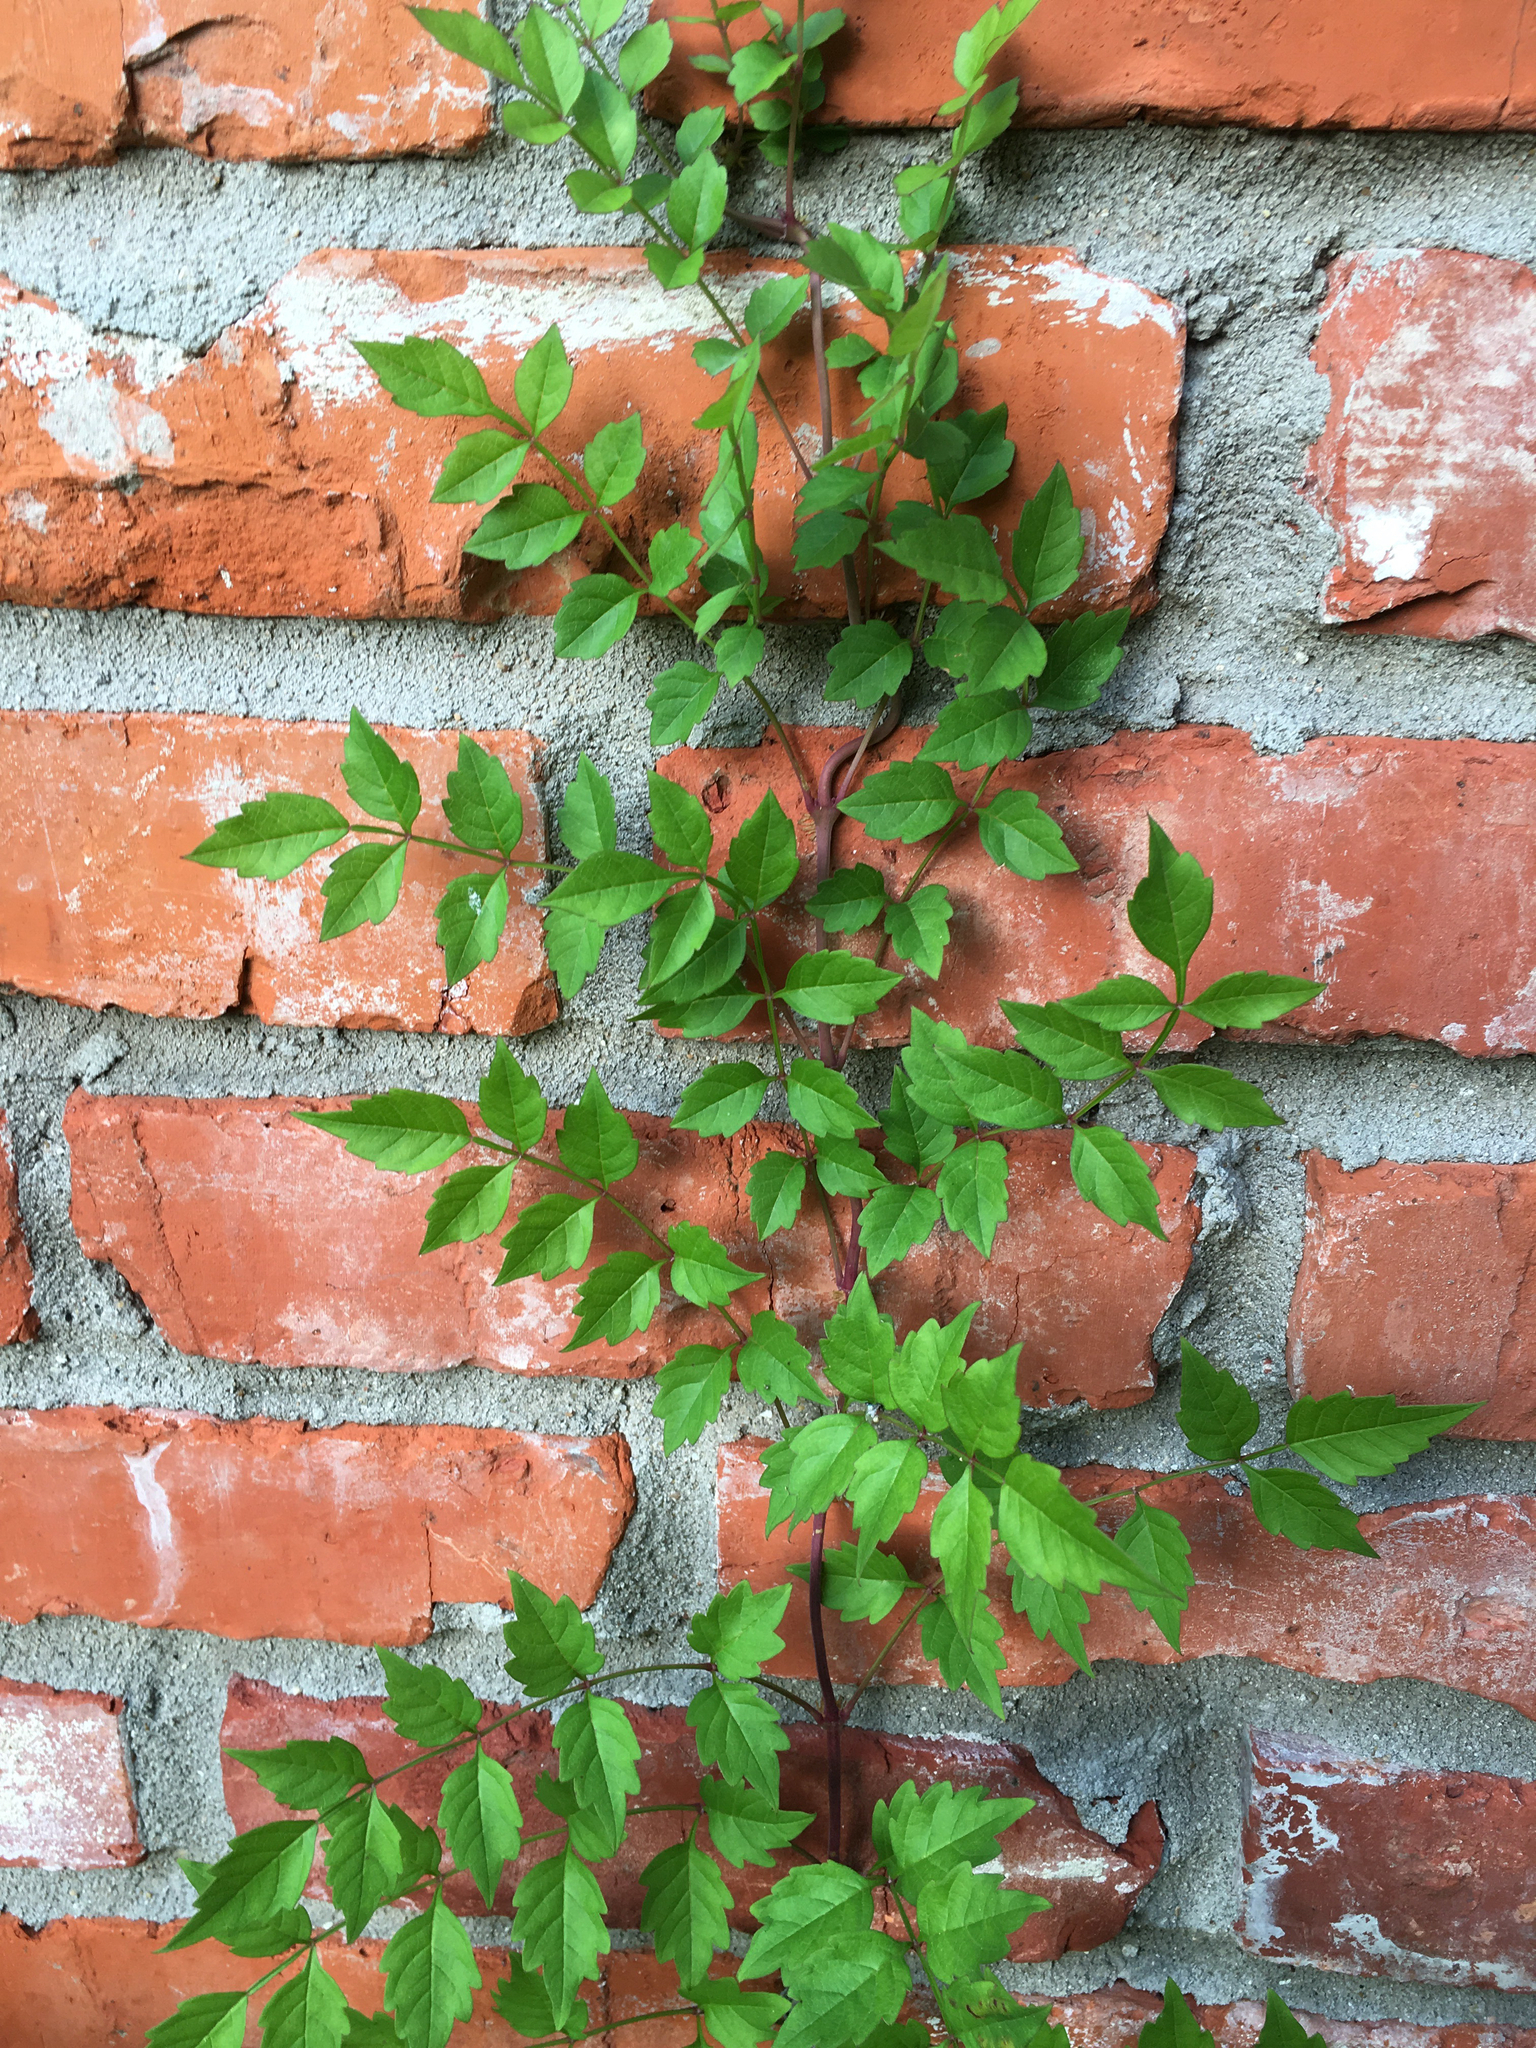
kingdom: Plantae
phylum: Tracheophyta
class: Magnoliopsida
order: Lamiales
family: Bignoniaceae
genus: Campsis
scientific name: Campsis radicans
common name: Trumpet-creeper
